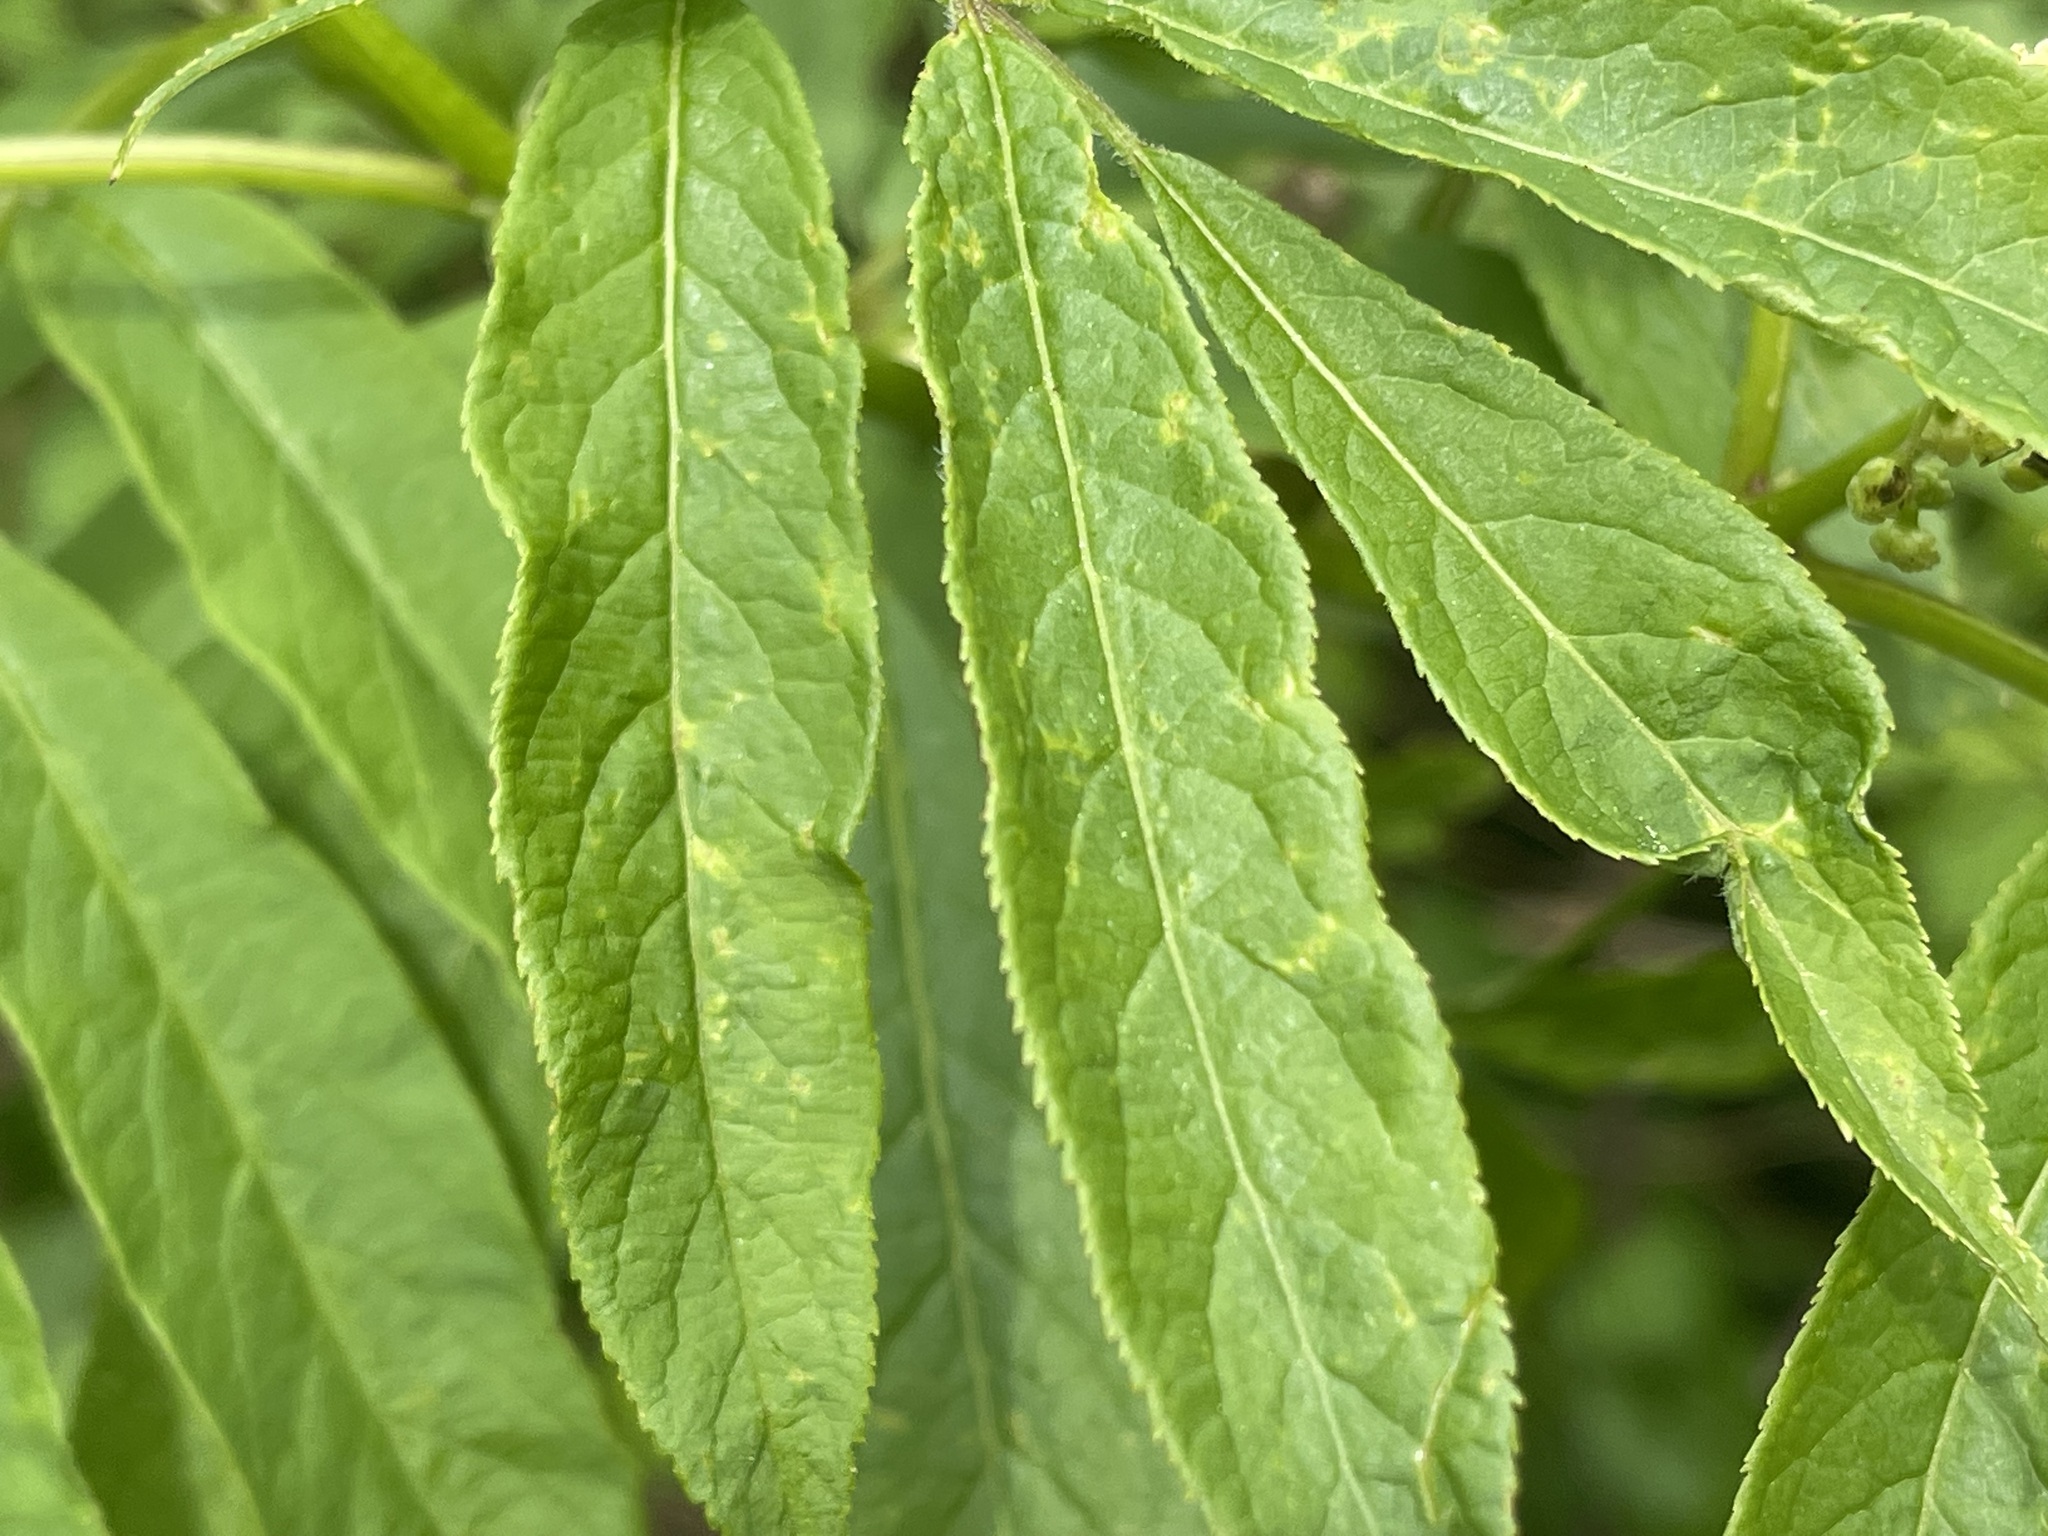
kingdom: Plantae
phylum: Tracheophyta
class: Magnoliopsida
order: Dipsacales
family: Viburnaceae
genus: Sambucus
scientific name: Sambucus racemosa
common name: Red-berried elder
